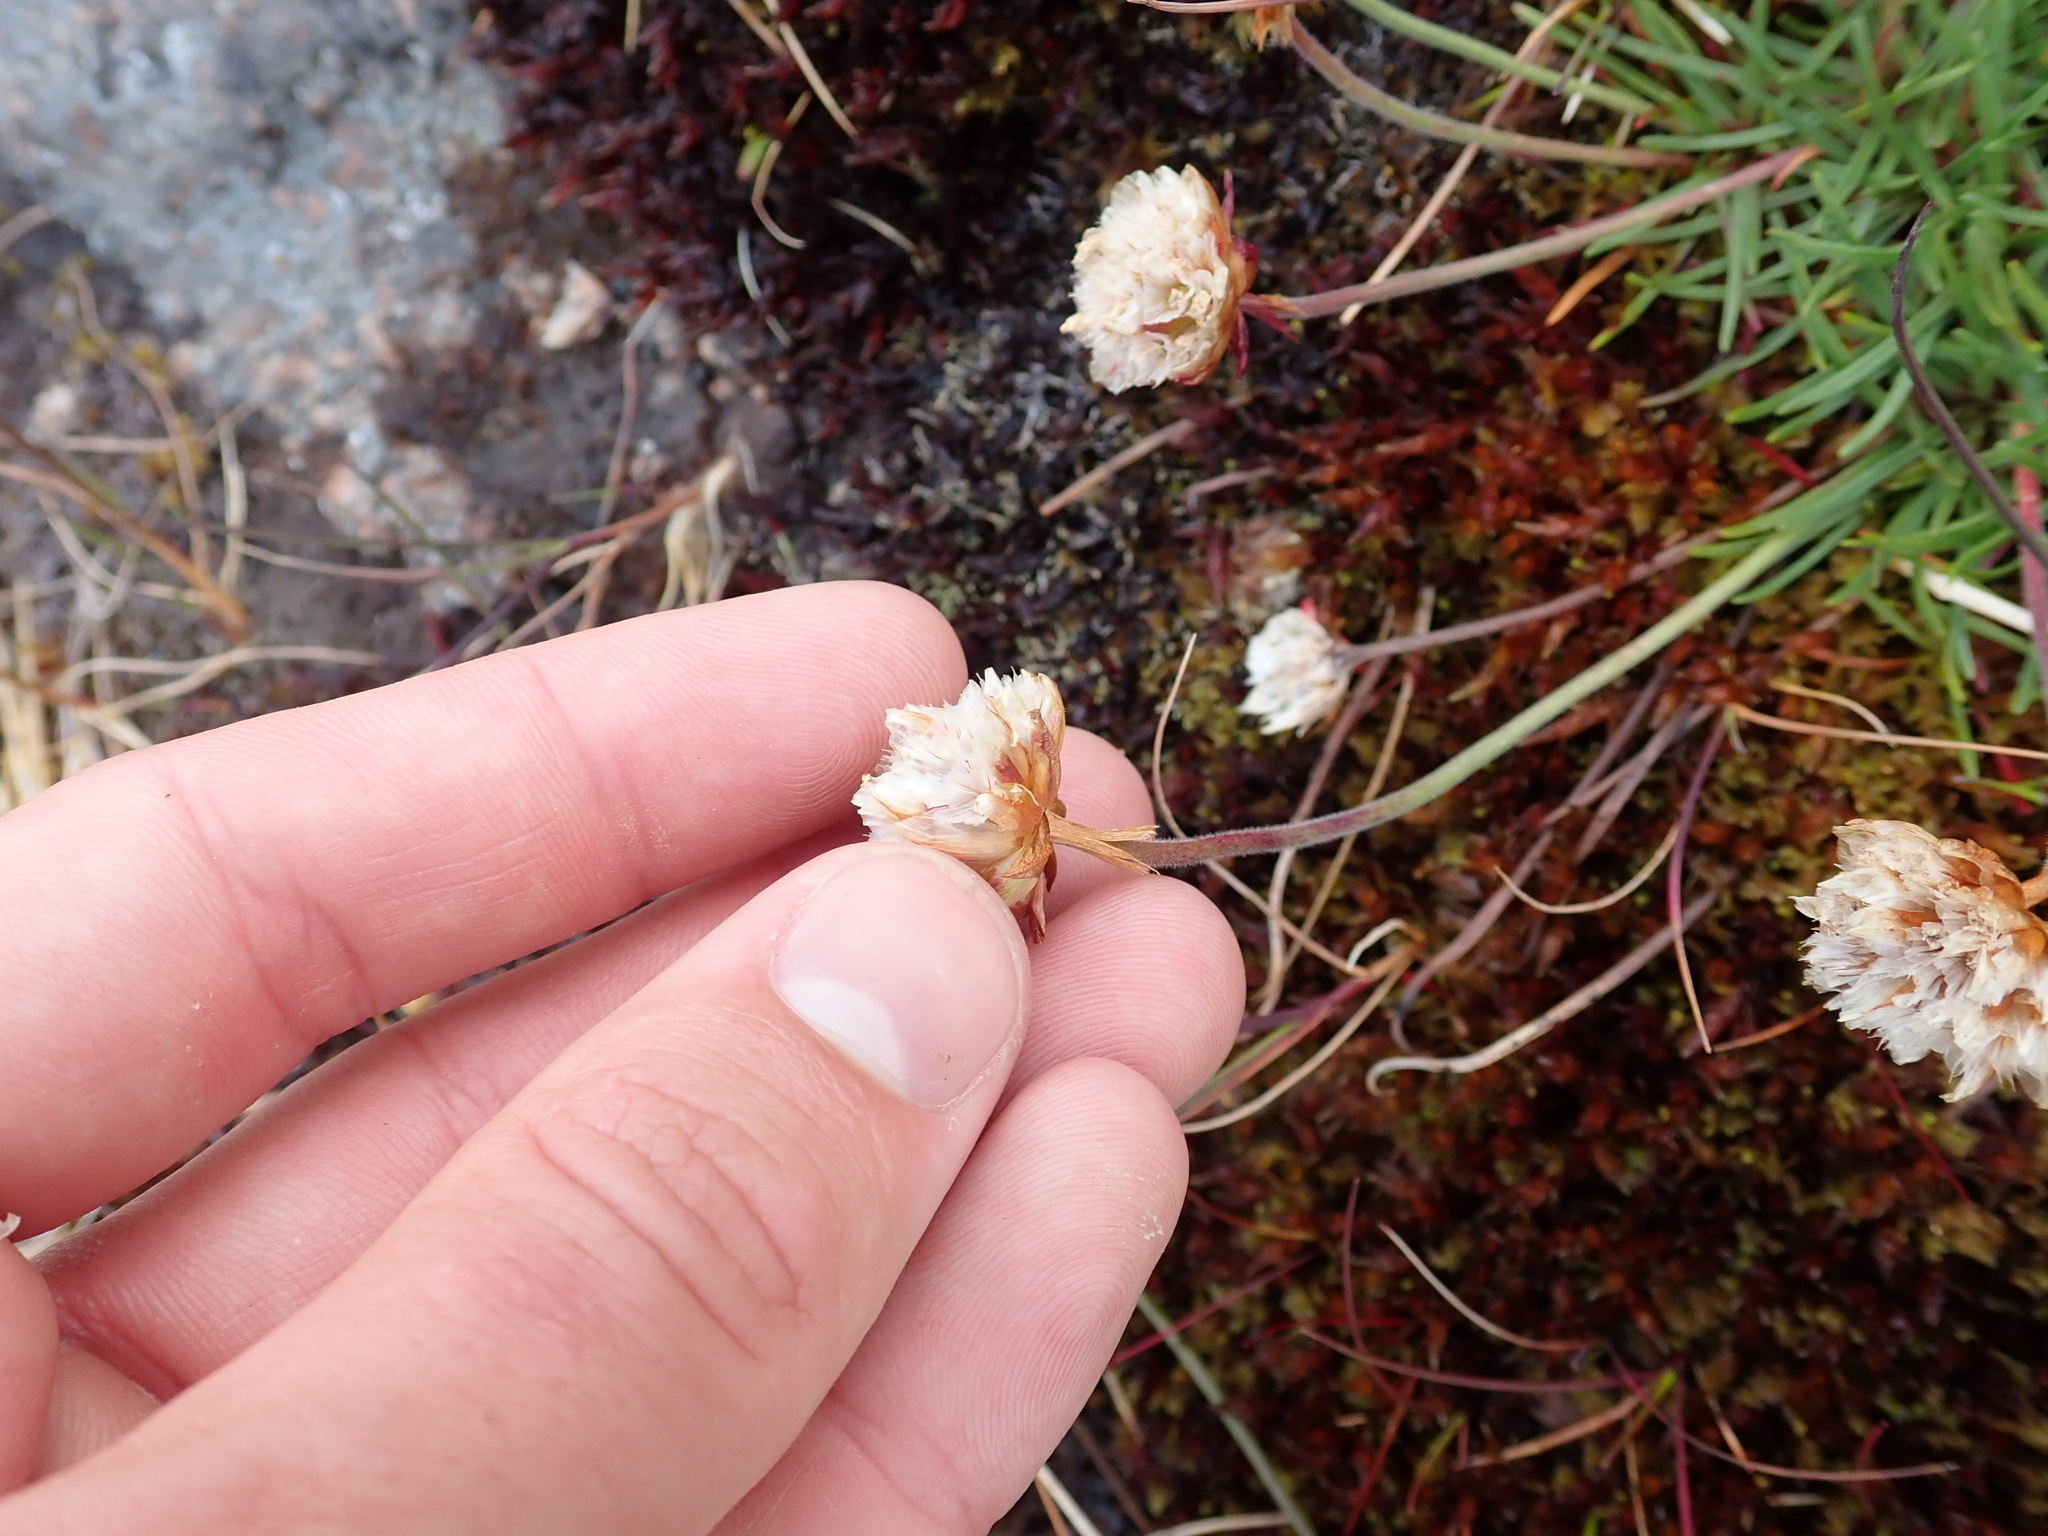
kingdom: Plantae
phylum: Tracheophyta
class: Magnoliopsida
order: Caryophyllales
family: Plumbaginaceae
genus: Armeria
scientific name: Armeria maritima
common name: Thrift
